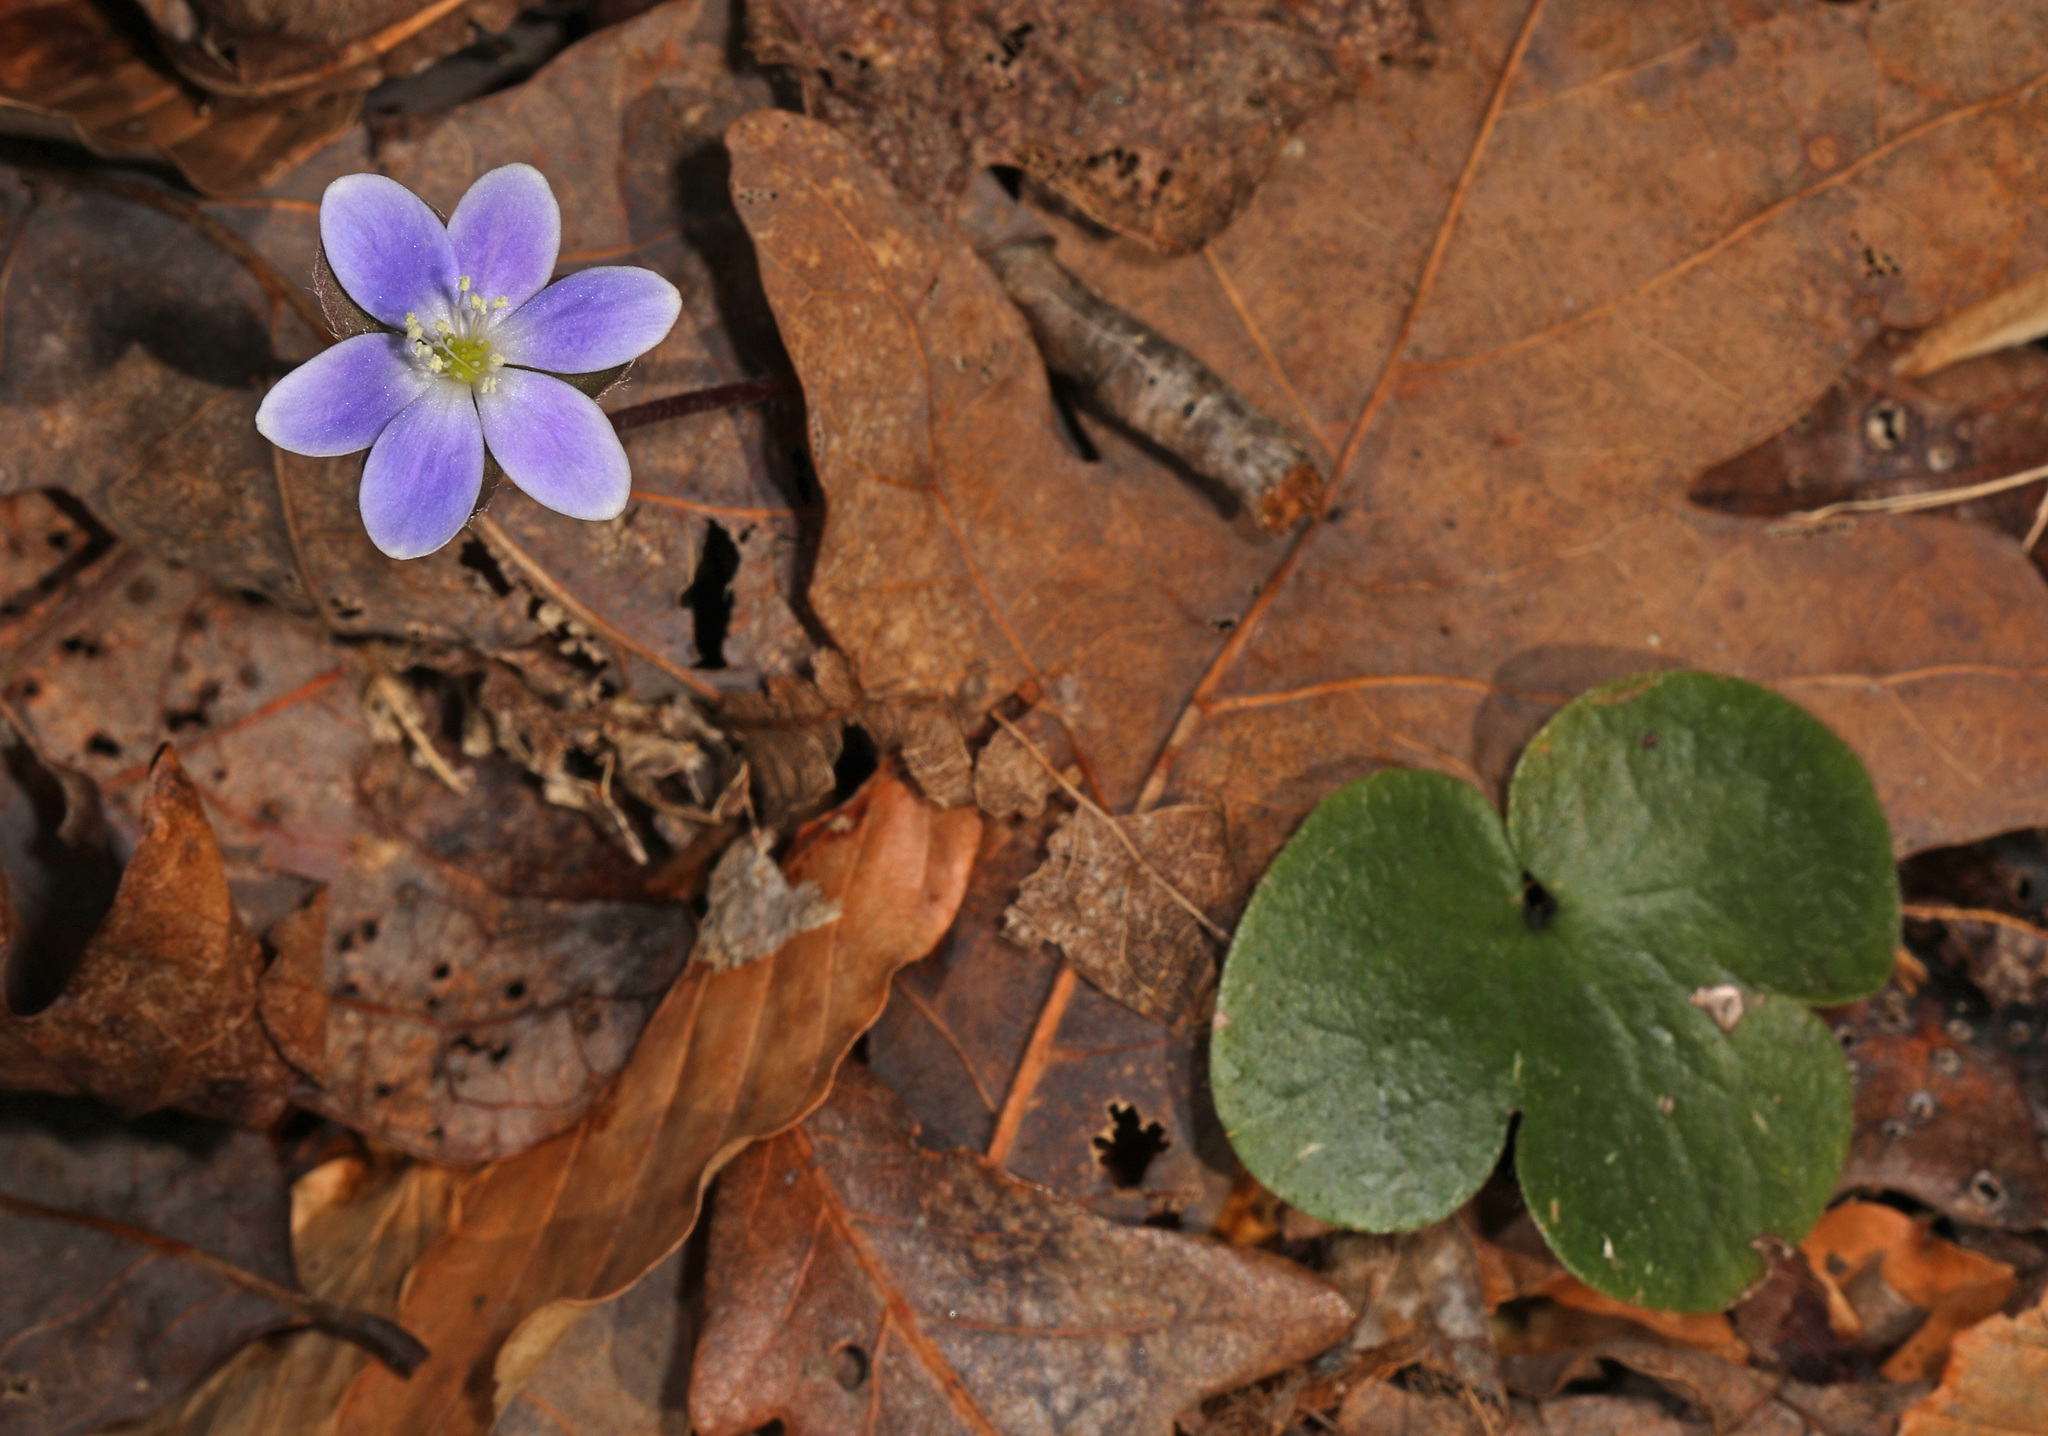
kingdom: Plantae
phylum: Tracheophyta
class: Magnoliopsida
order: Ranunculales
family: Ranunculaceae
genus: Hepatica
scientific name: Hepatica americana
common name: American hepatica
